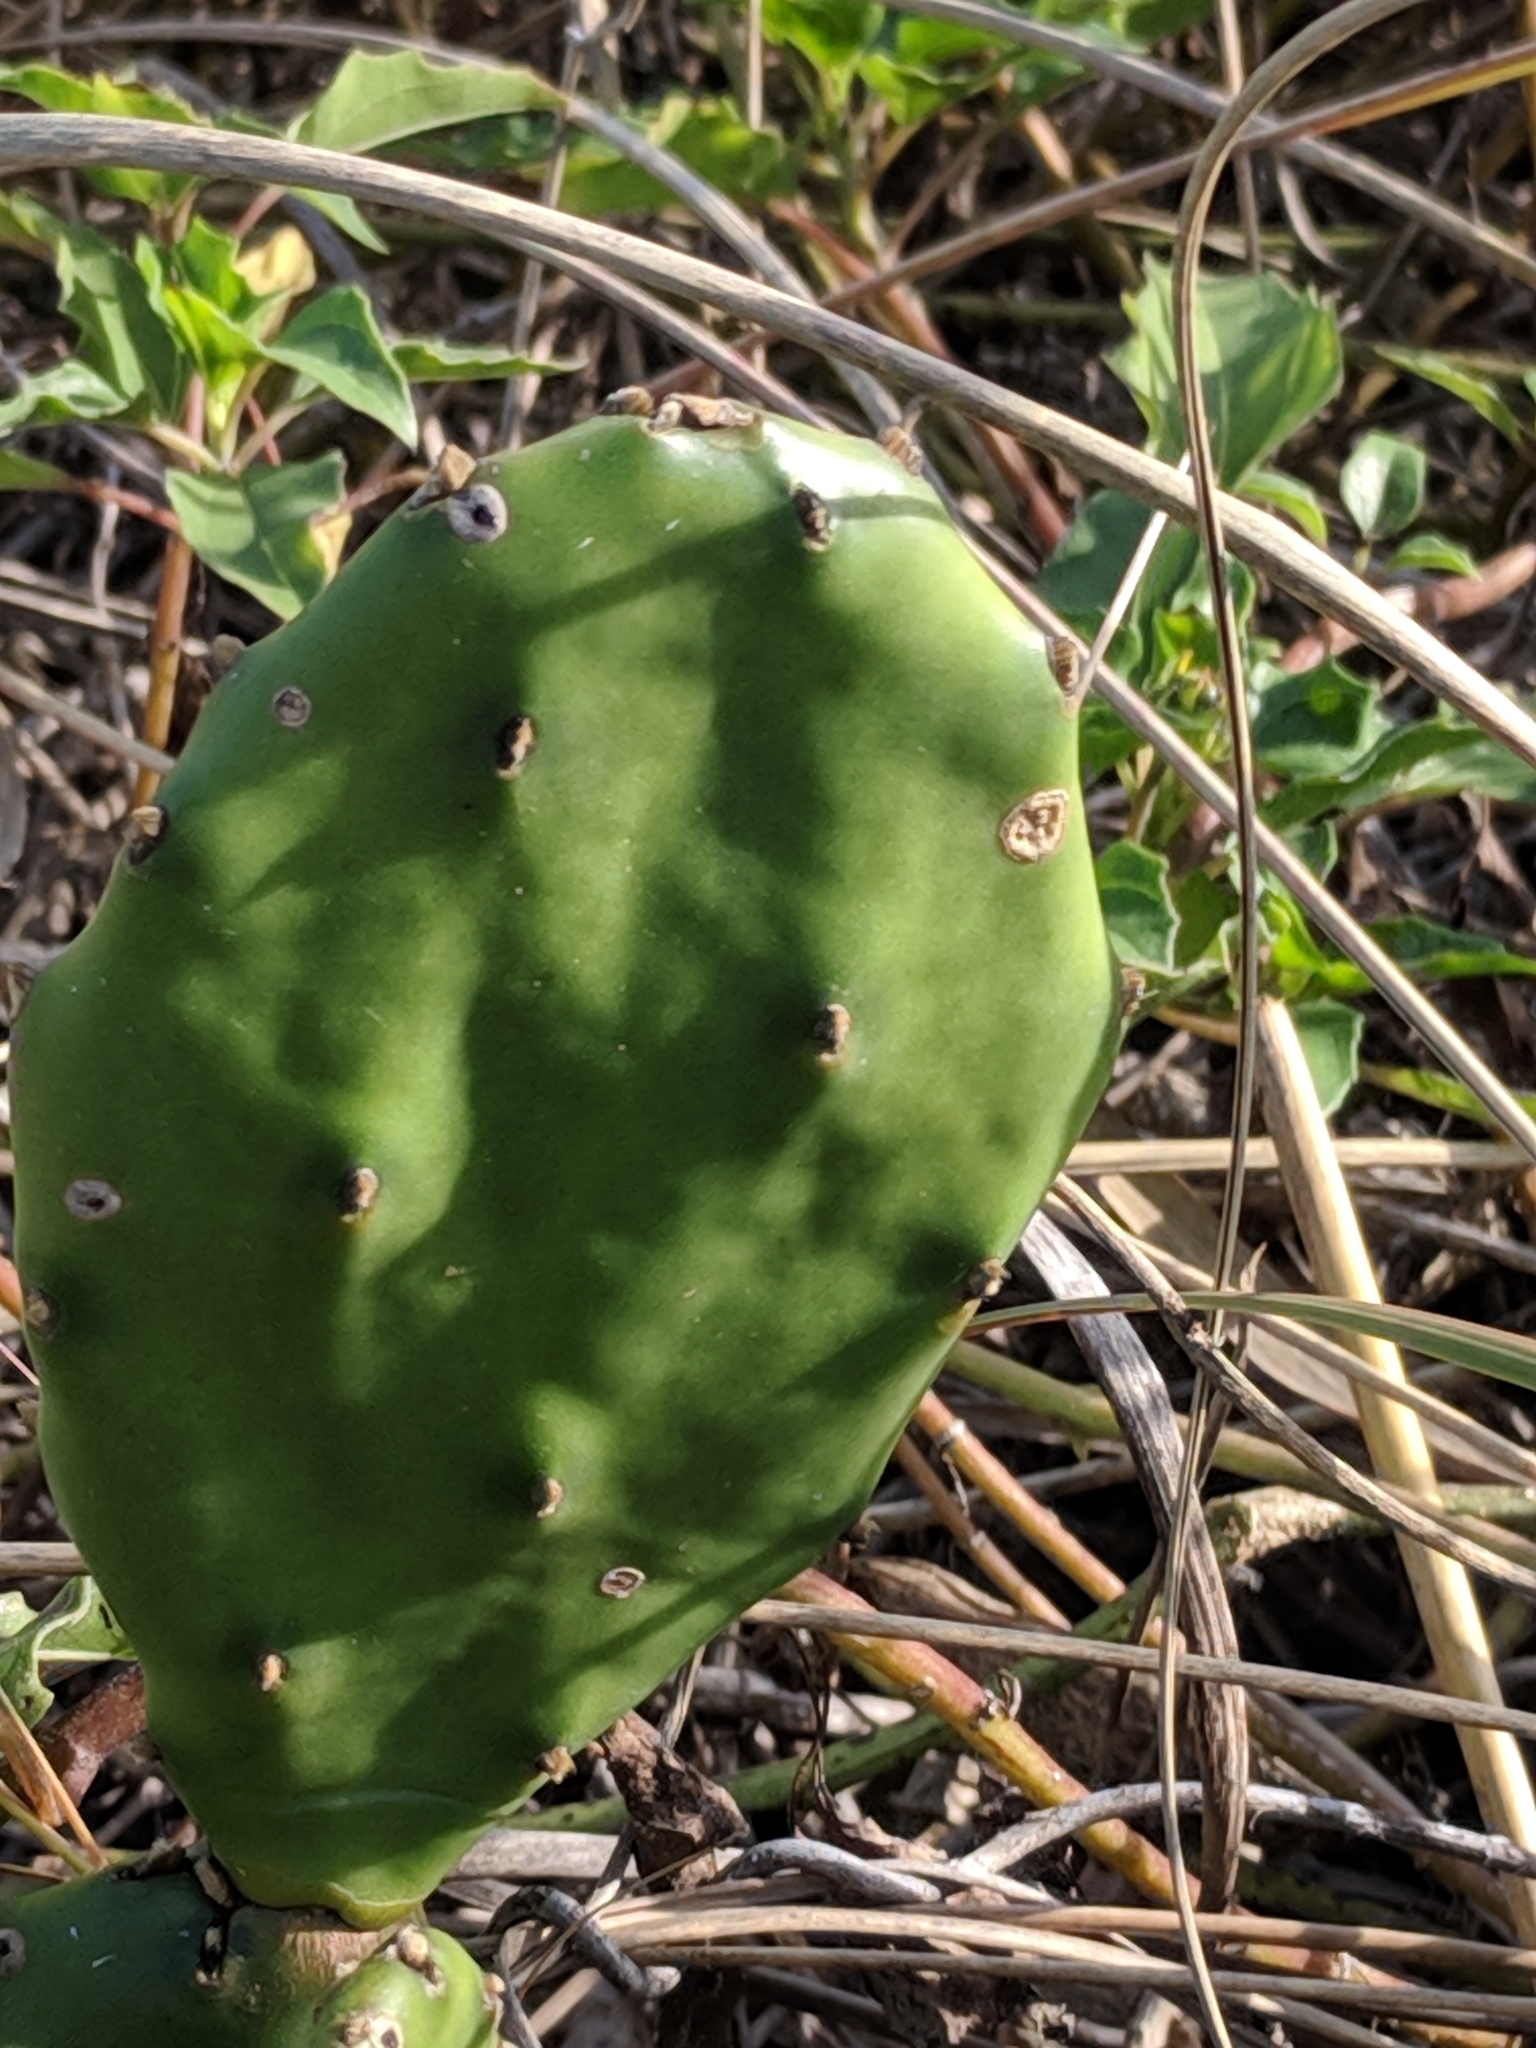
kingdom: Plantae
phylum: Tracheophyta
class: Magnoliopsida
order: Caryophyllales
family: Cactaceae
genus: Opuntia
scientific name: Opuntia stricta
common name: Erect pricklypear
